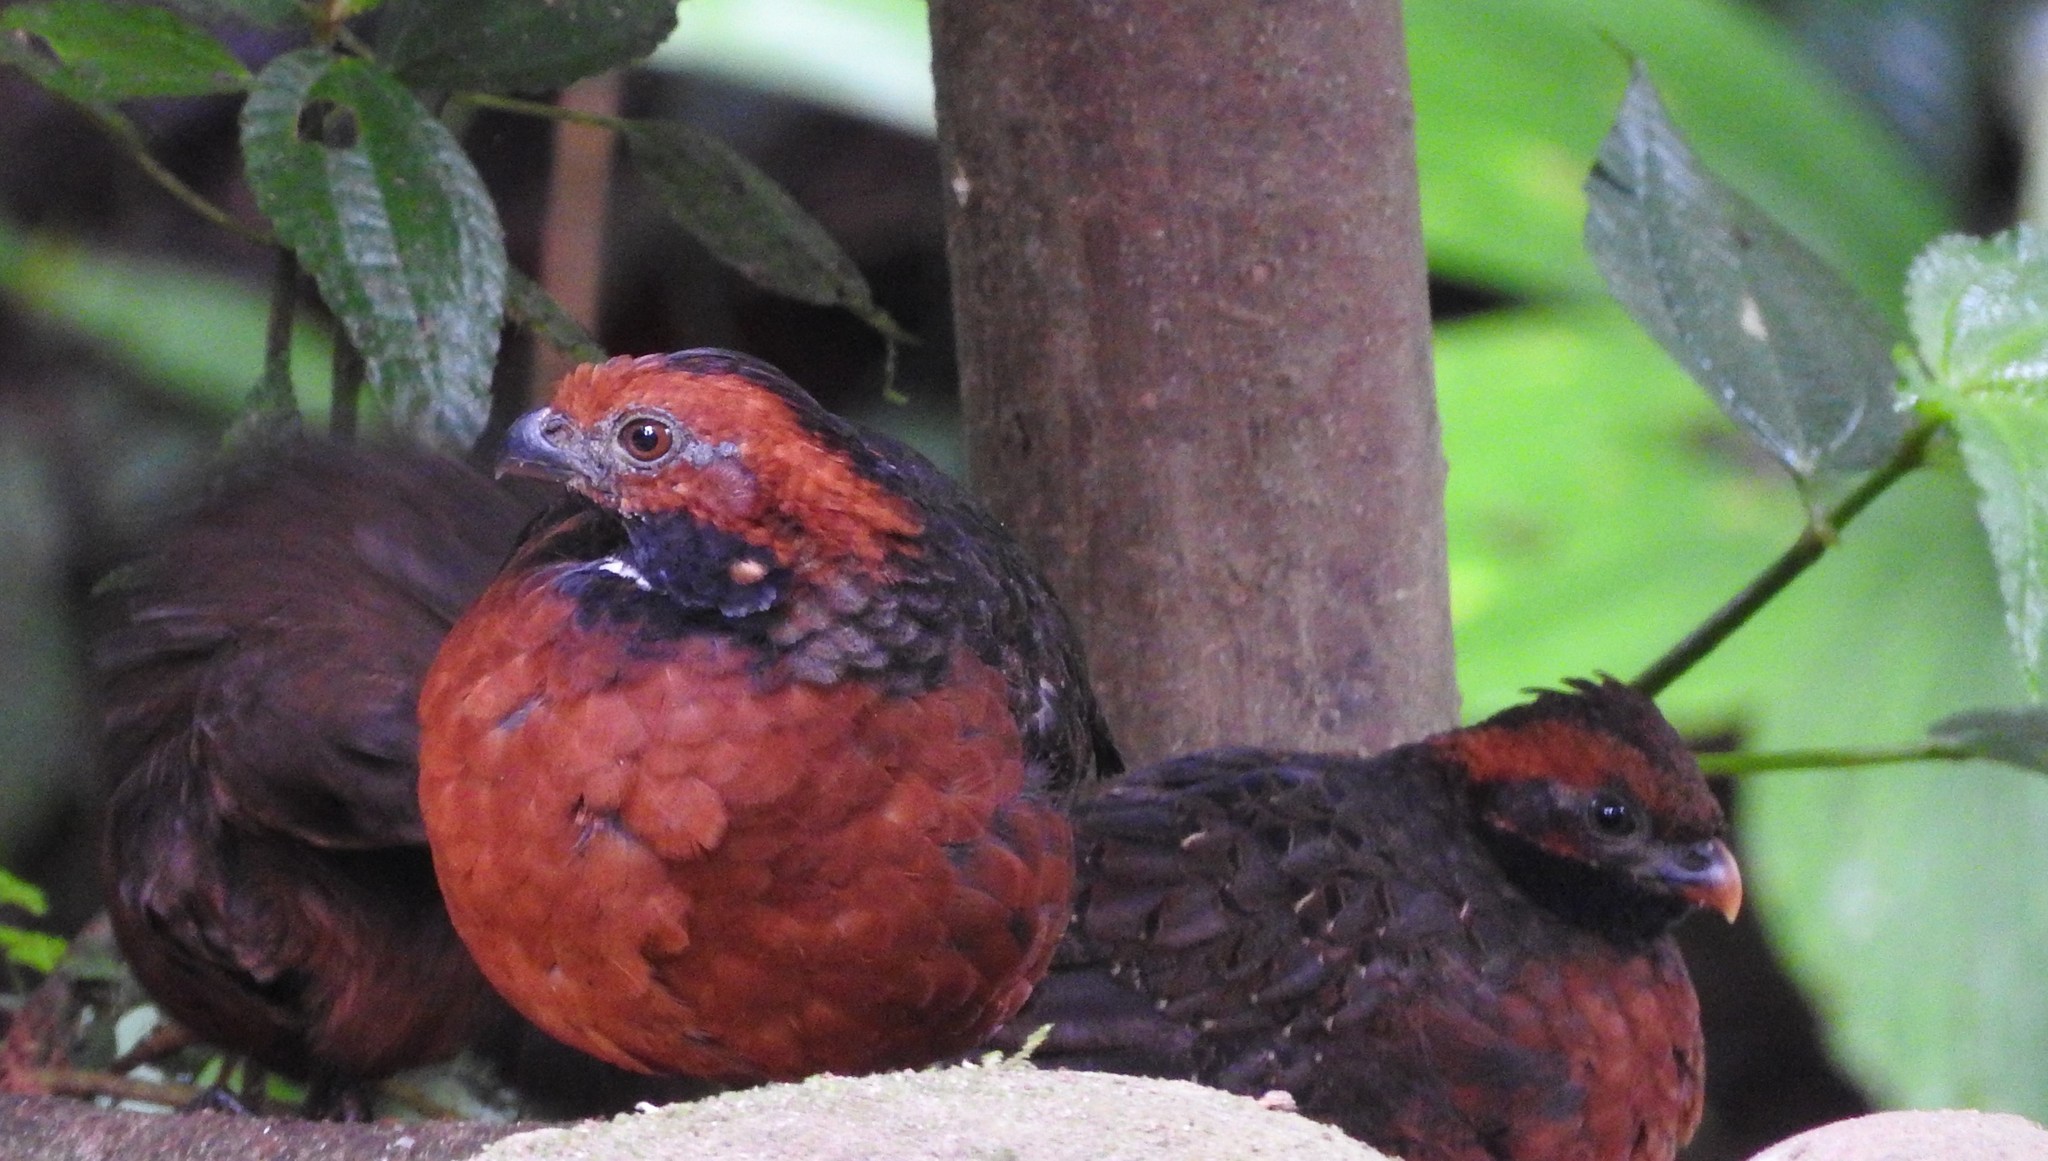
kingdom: Animalia
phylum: Chordata
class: Aves
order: Galliformes
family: Odontophoridae
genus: Odontophorus
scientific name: Odontophorus erythrops
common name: Rufous-fronted wood quail
